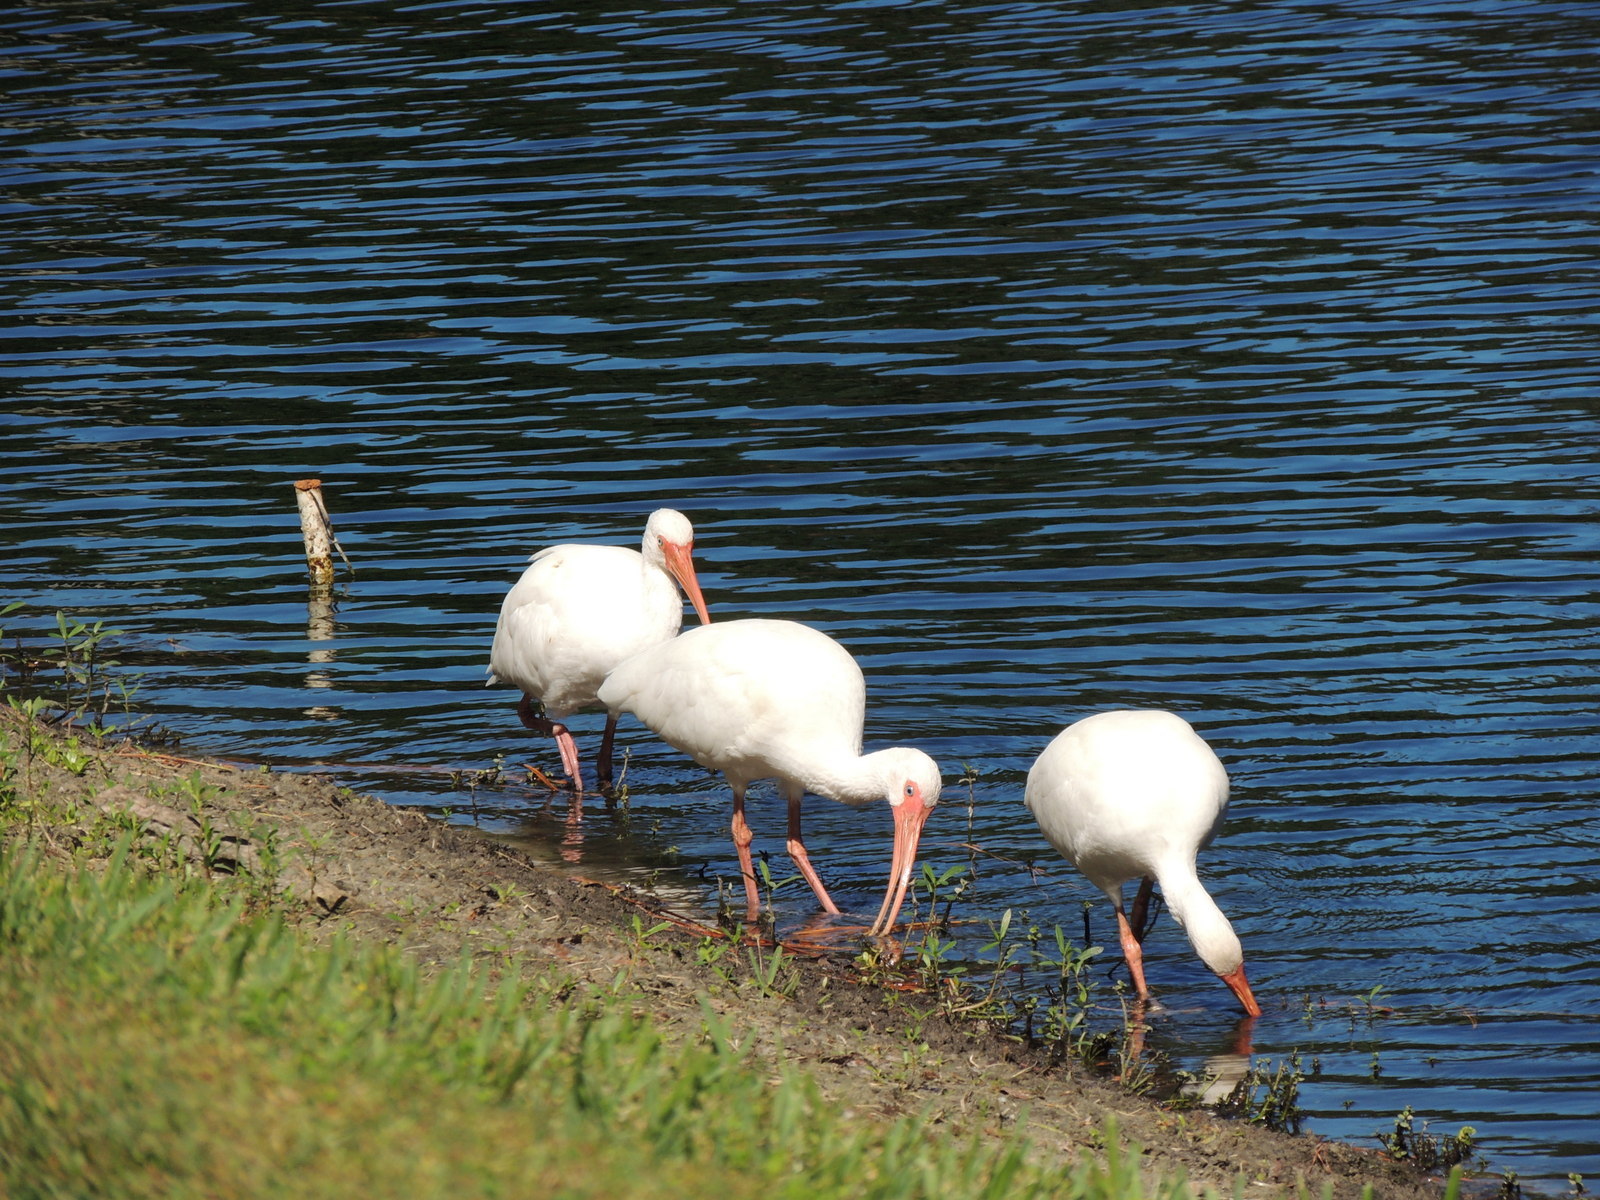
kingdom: Animalia
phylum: Chordata
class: Aves
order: Pelecaniformes
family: Threskiornithidae
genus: Eudocimus
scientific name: Eudocimus albus
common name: White ibis
